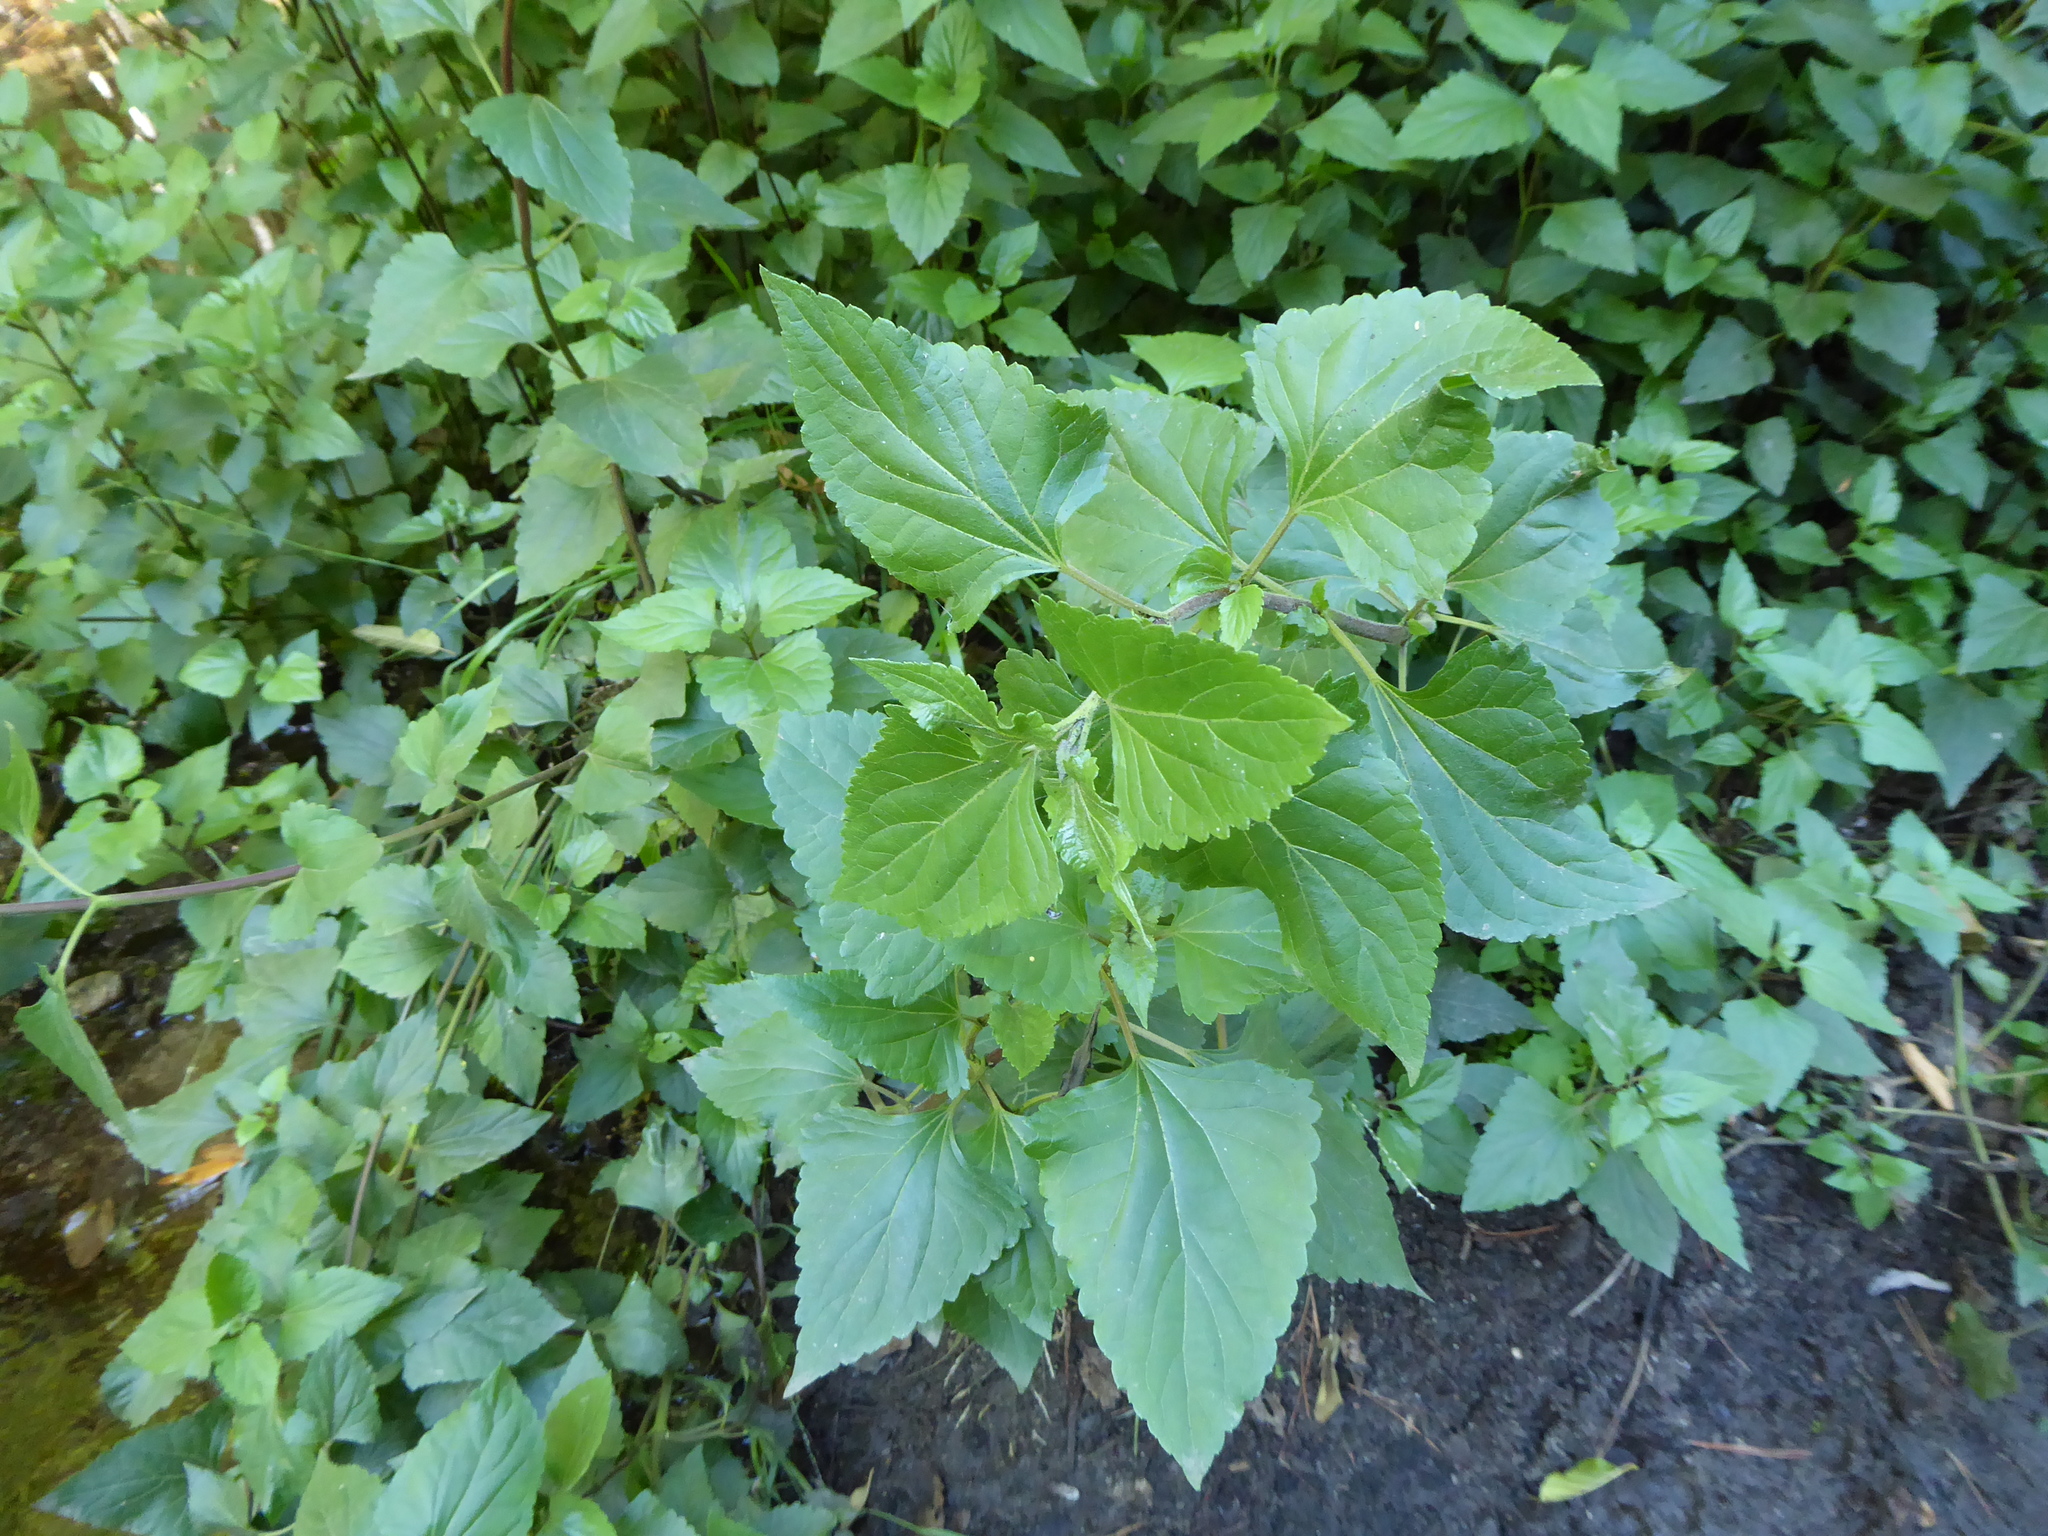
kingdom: Plantae
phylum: Tracheophyta
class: Magnoliopsida
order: Asterales
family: Asteraceae
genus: Ageratina
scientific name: Ageratina adenophora
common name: Sticky snakeroot
